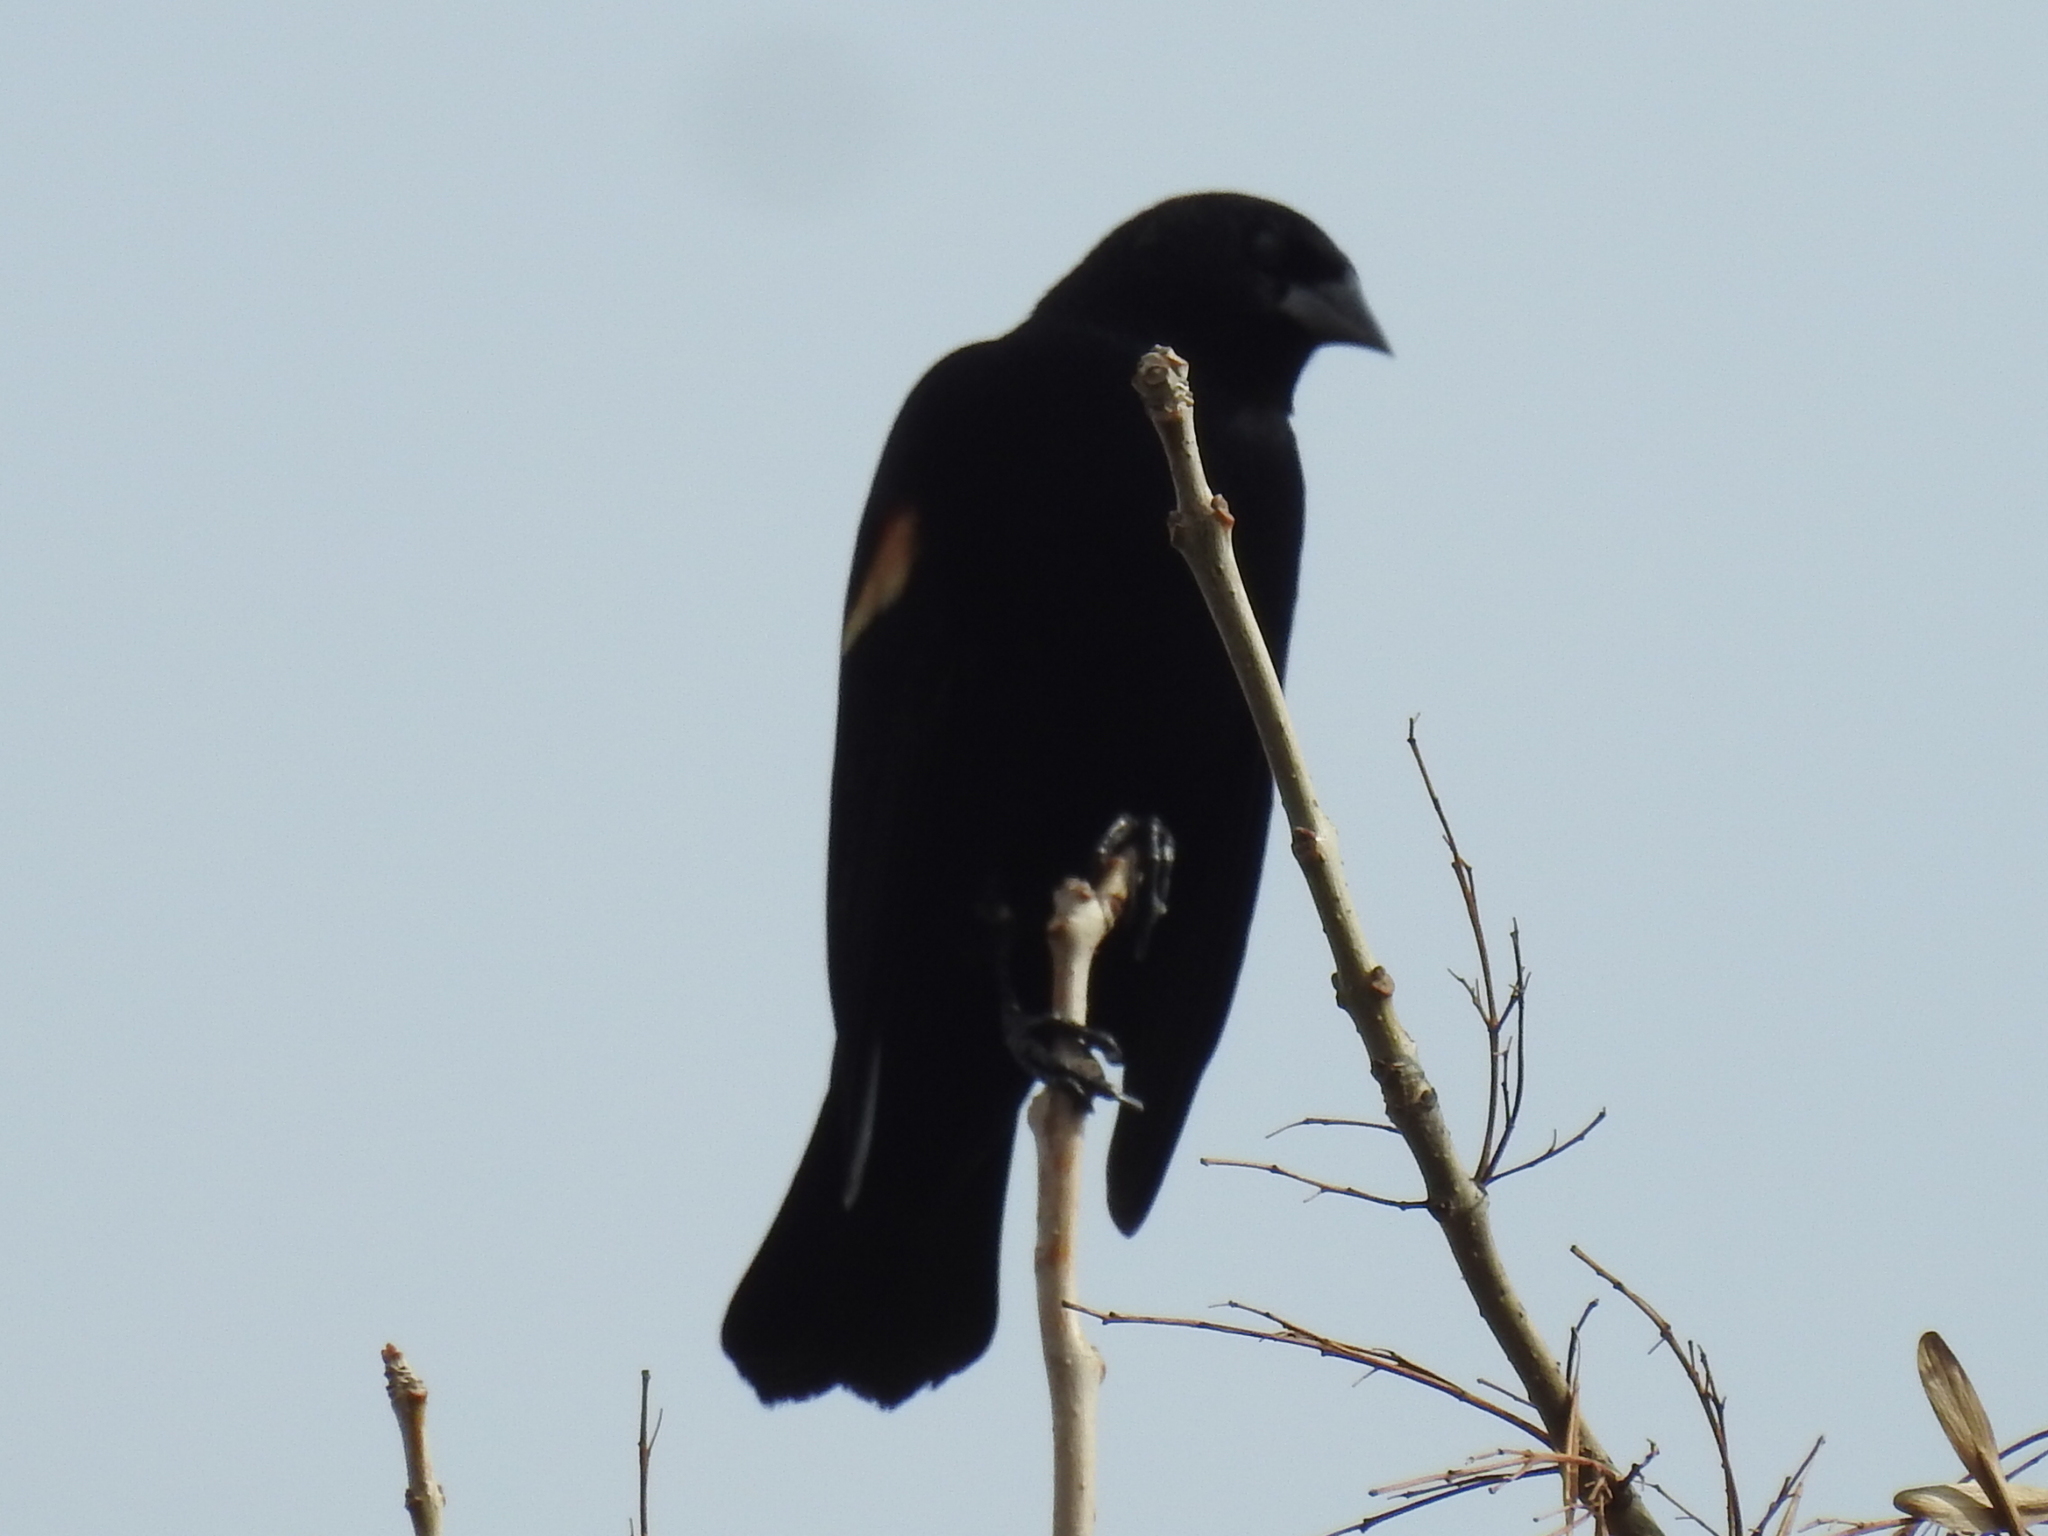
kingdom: Animalia
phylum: Chordata
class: Aves
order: Passeriformes
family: Icteridae
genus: Agelaius
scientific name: Agelaius phoeniceus
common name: Red-winged blackbird
